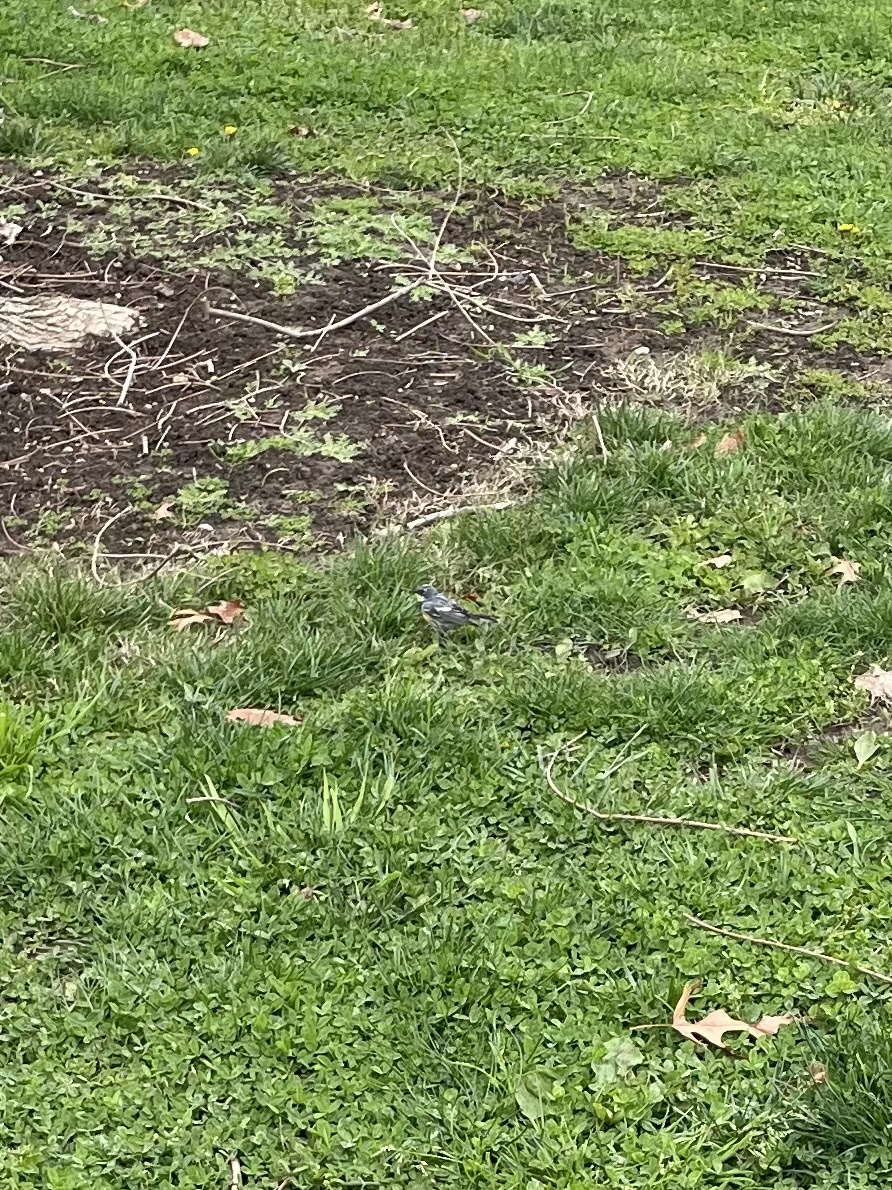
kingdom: Animalia
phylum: Chordata
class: Aves
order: Passeriformes
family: Parulidae
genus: Setophaga
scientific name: Setophaga coronata
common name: Myrtle warbler
